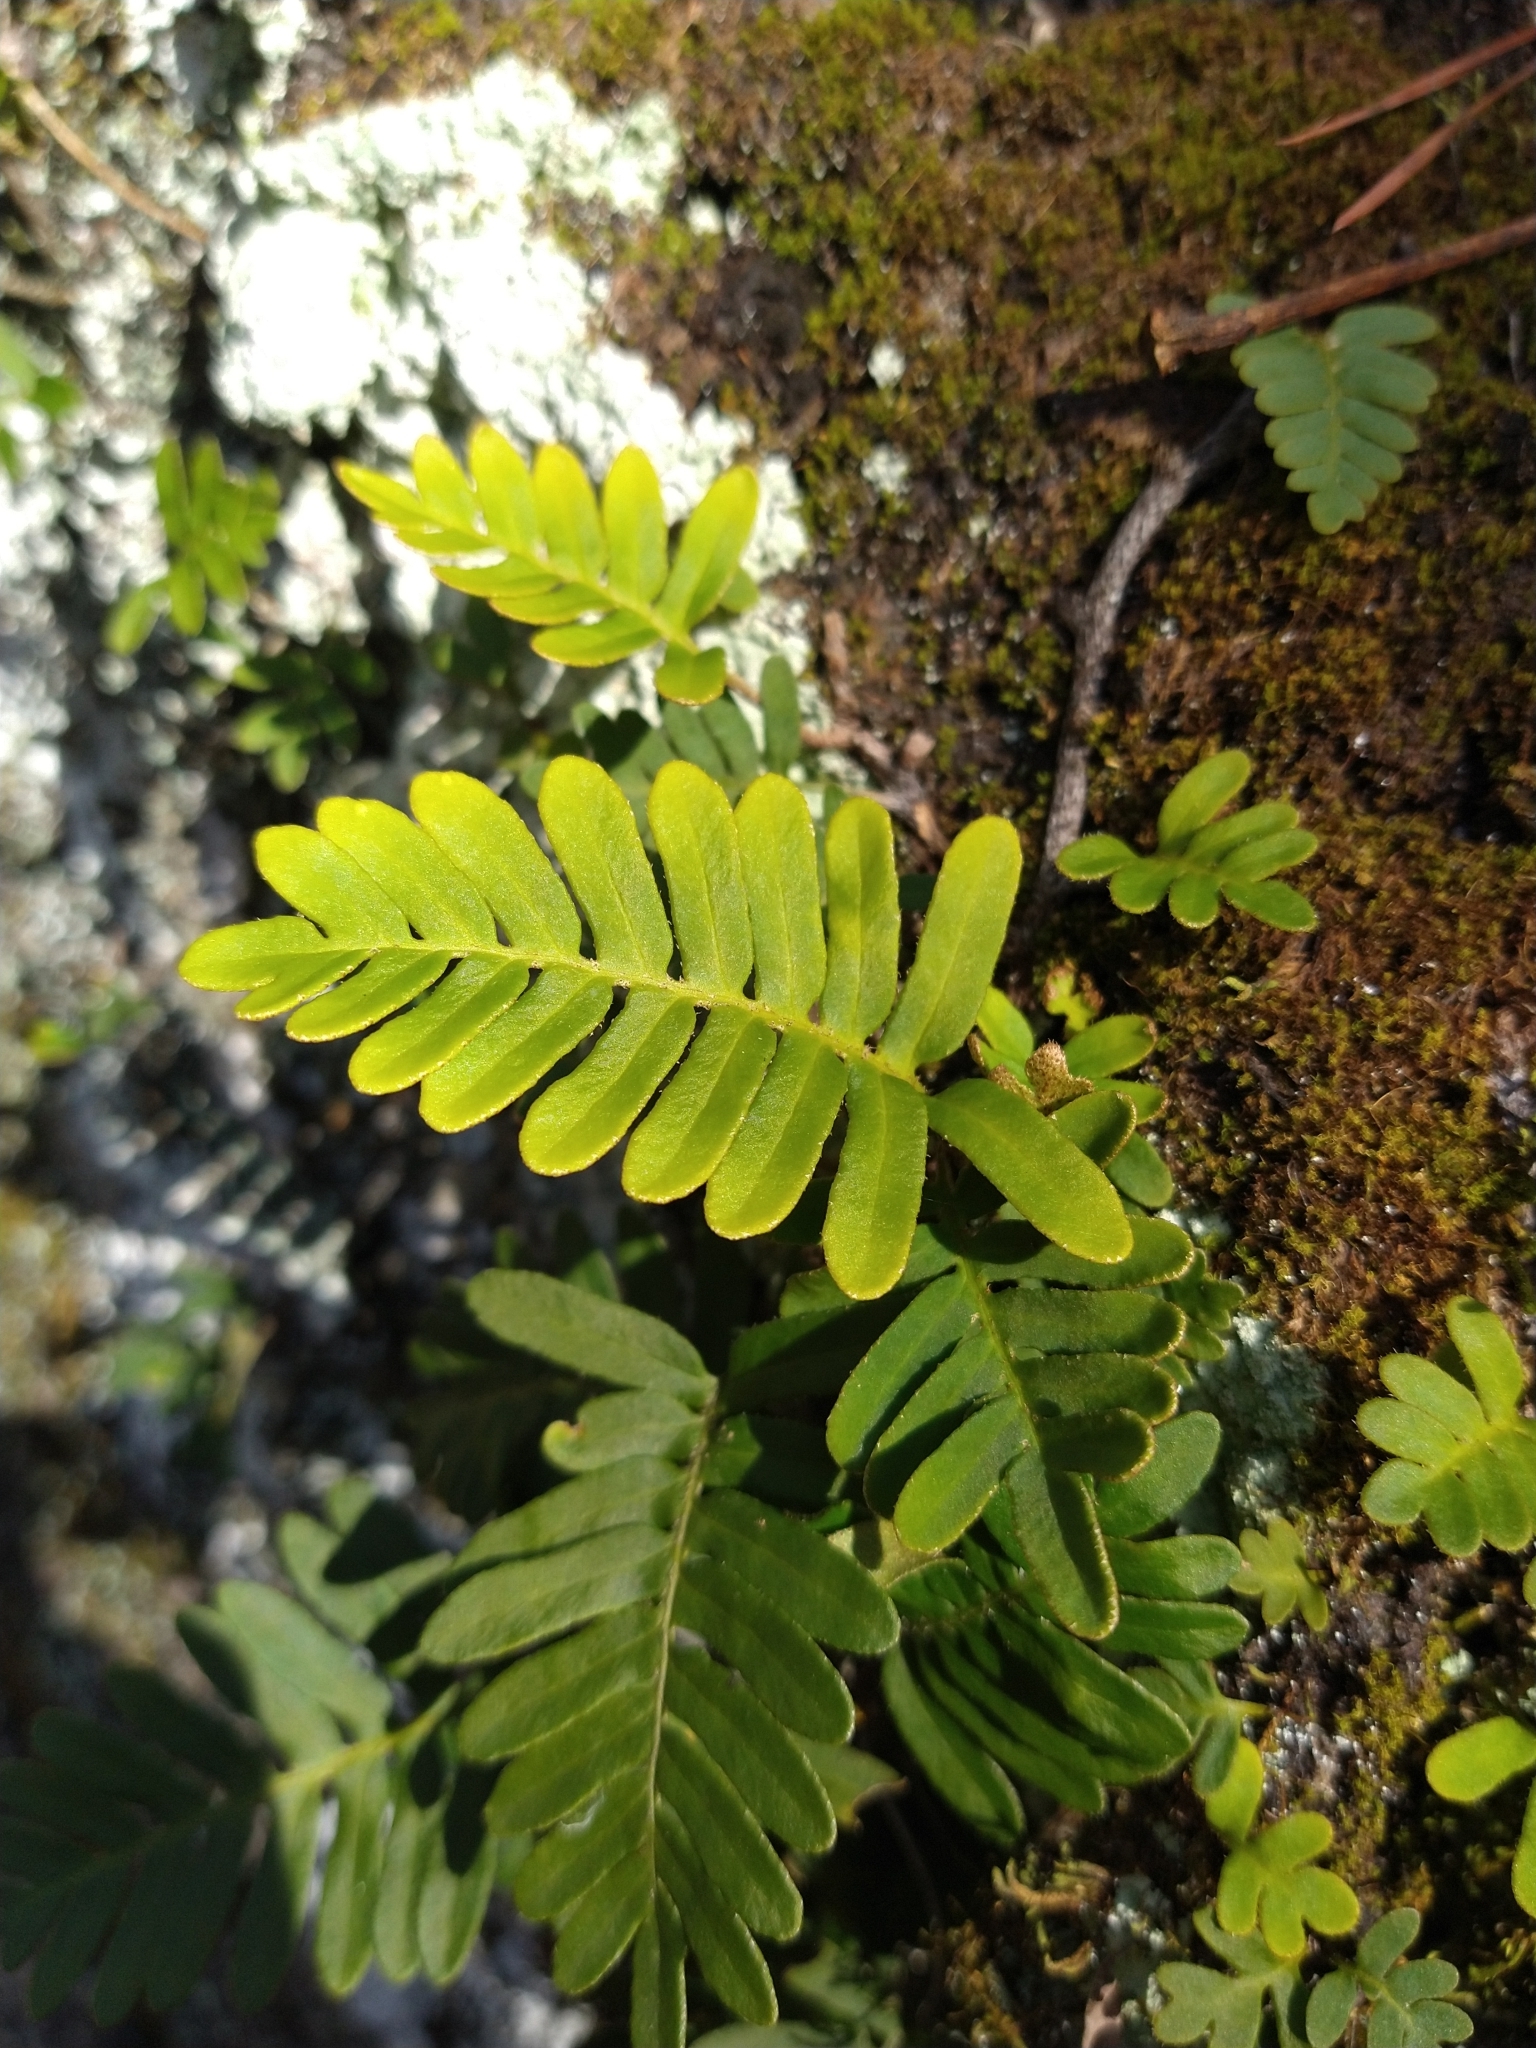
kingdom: Plantae
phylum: Tracheophyta
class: Polypodiopsida
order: Polypodiales
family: Polypodiaceae
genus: Pleopeltis
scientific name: Pleopeltis michauxiana
